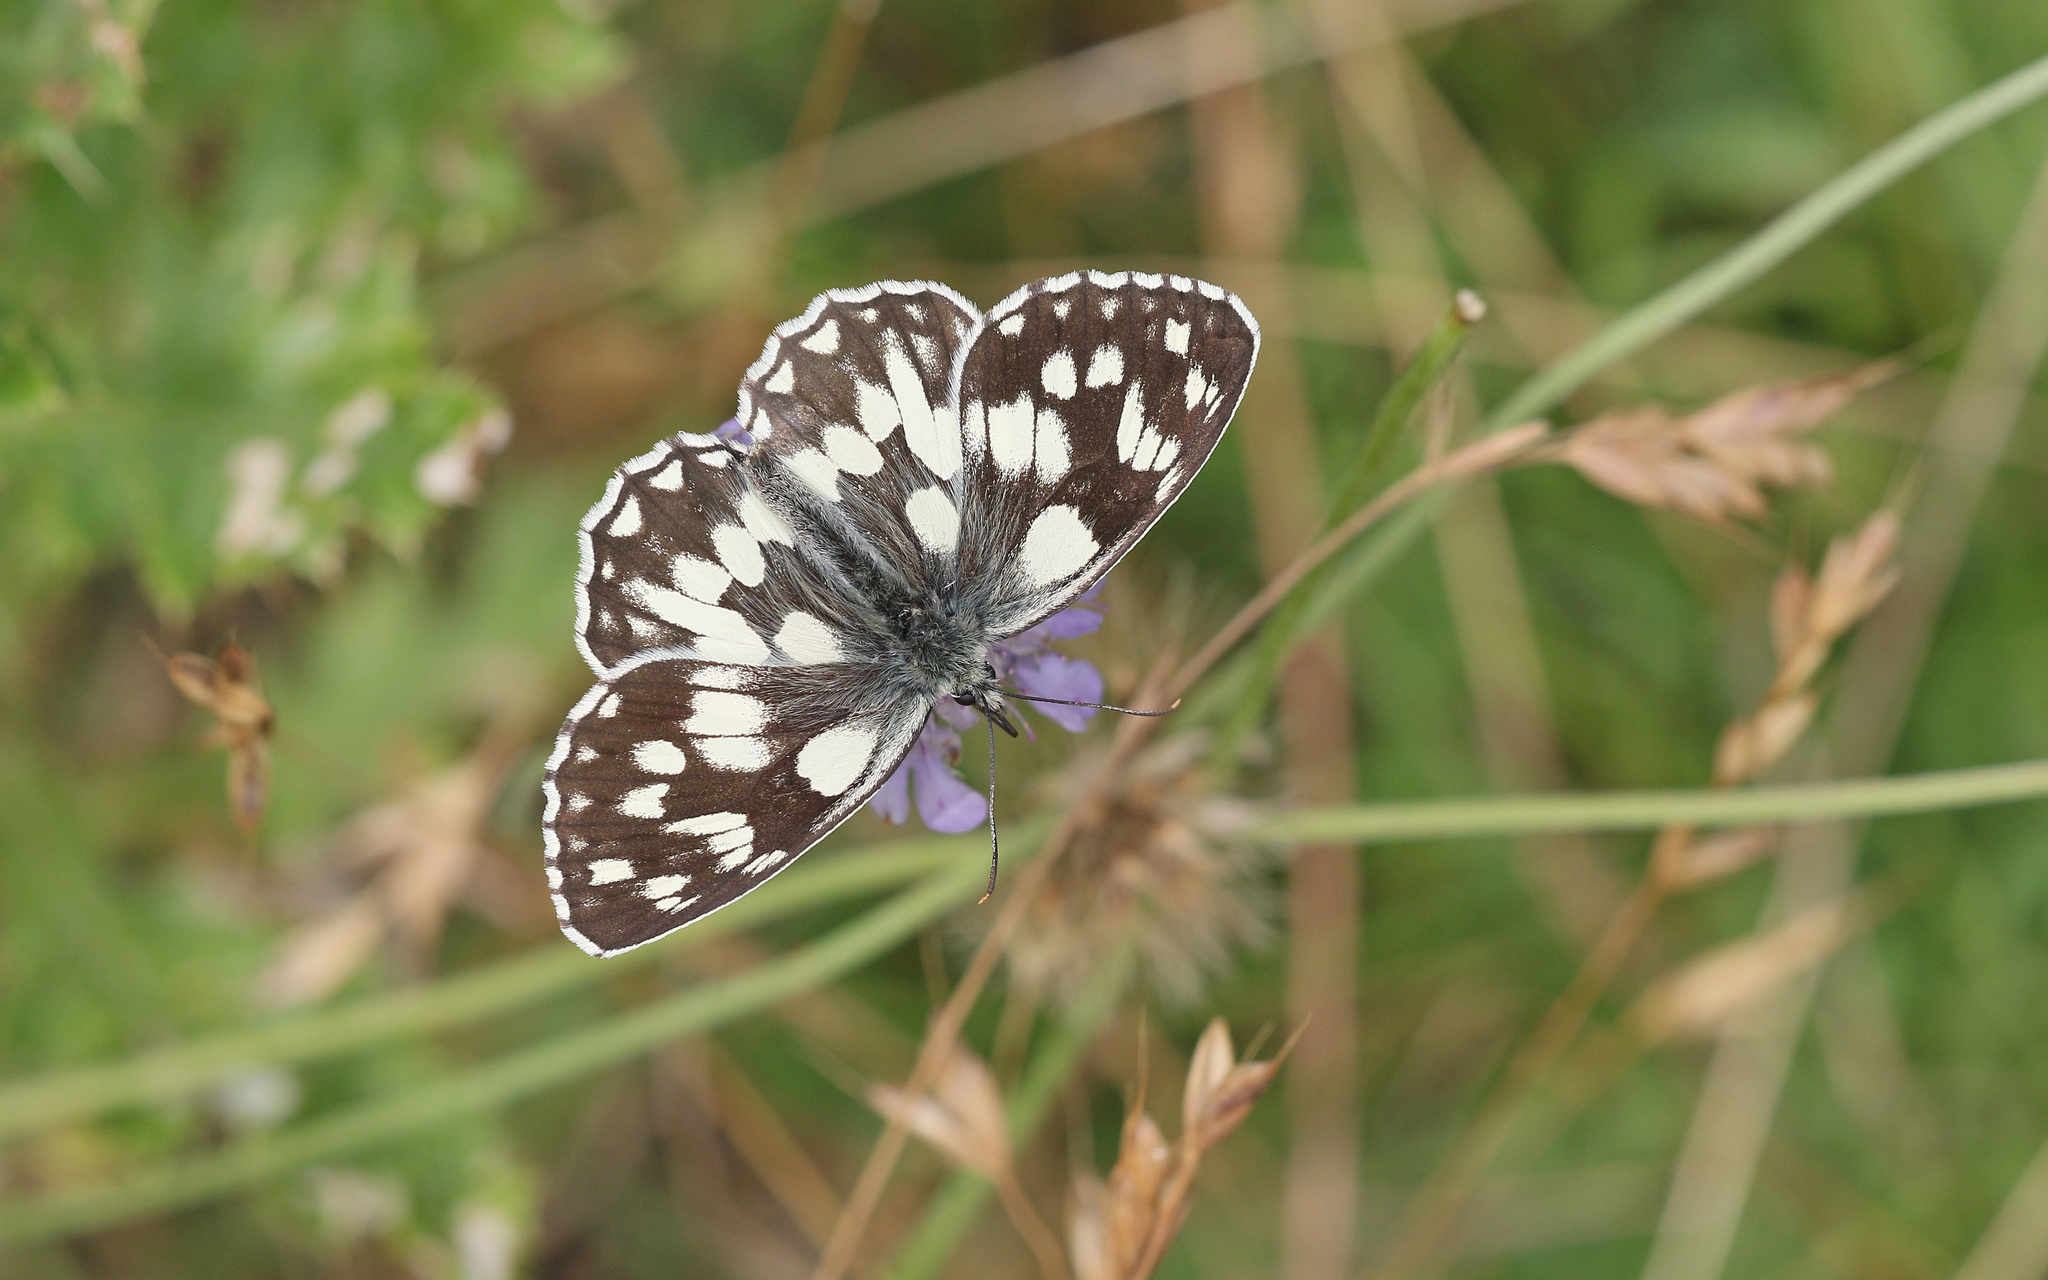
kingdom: Animalia
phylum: Arthropoda
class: Insecta
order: Lepidoptera
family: Nymphalidae
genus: Melanargia
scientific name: Melanargia galathea
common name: Marbled white
